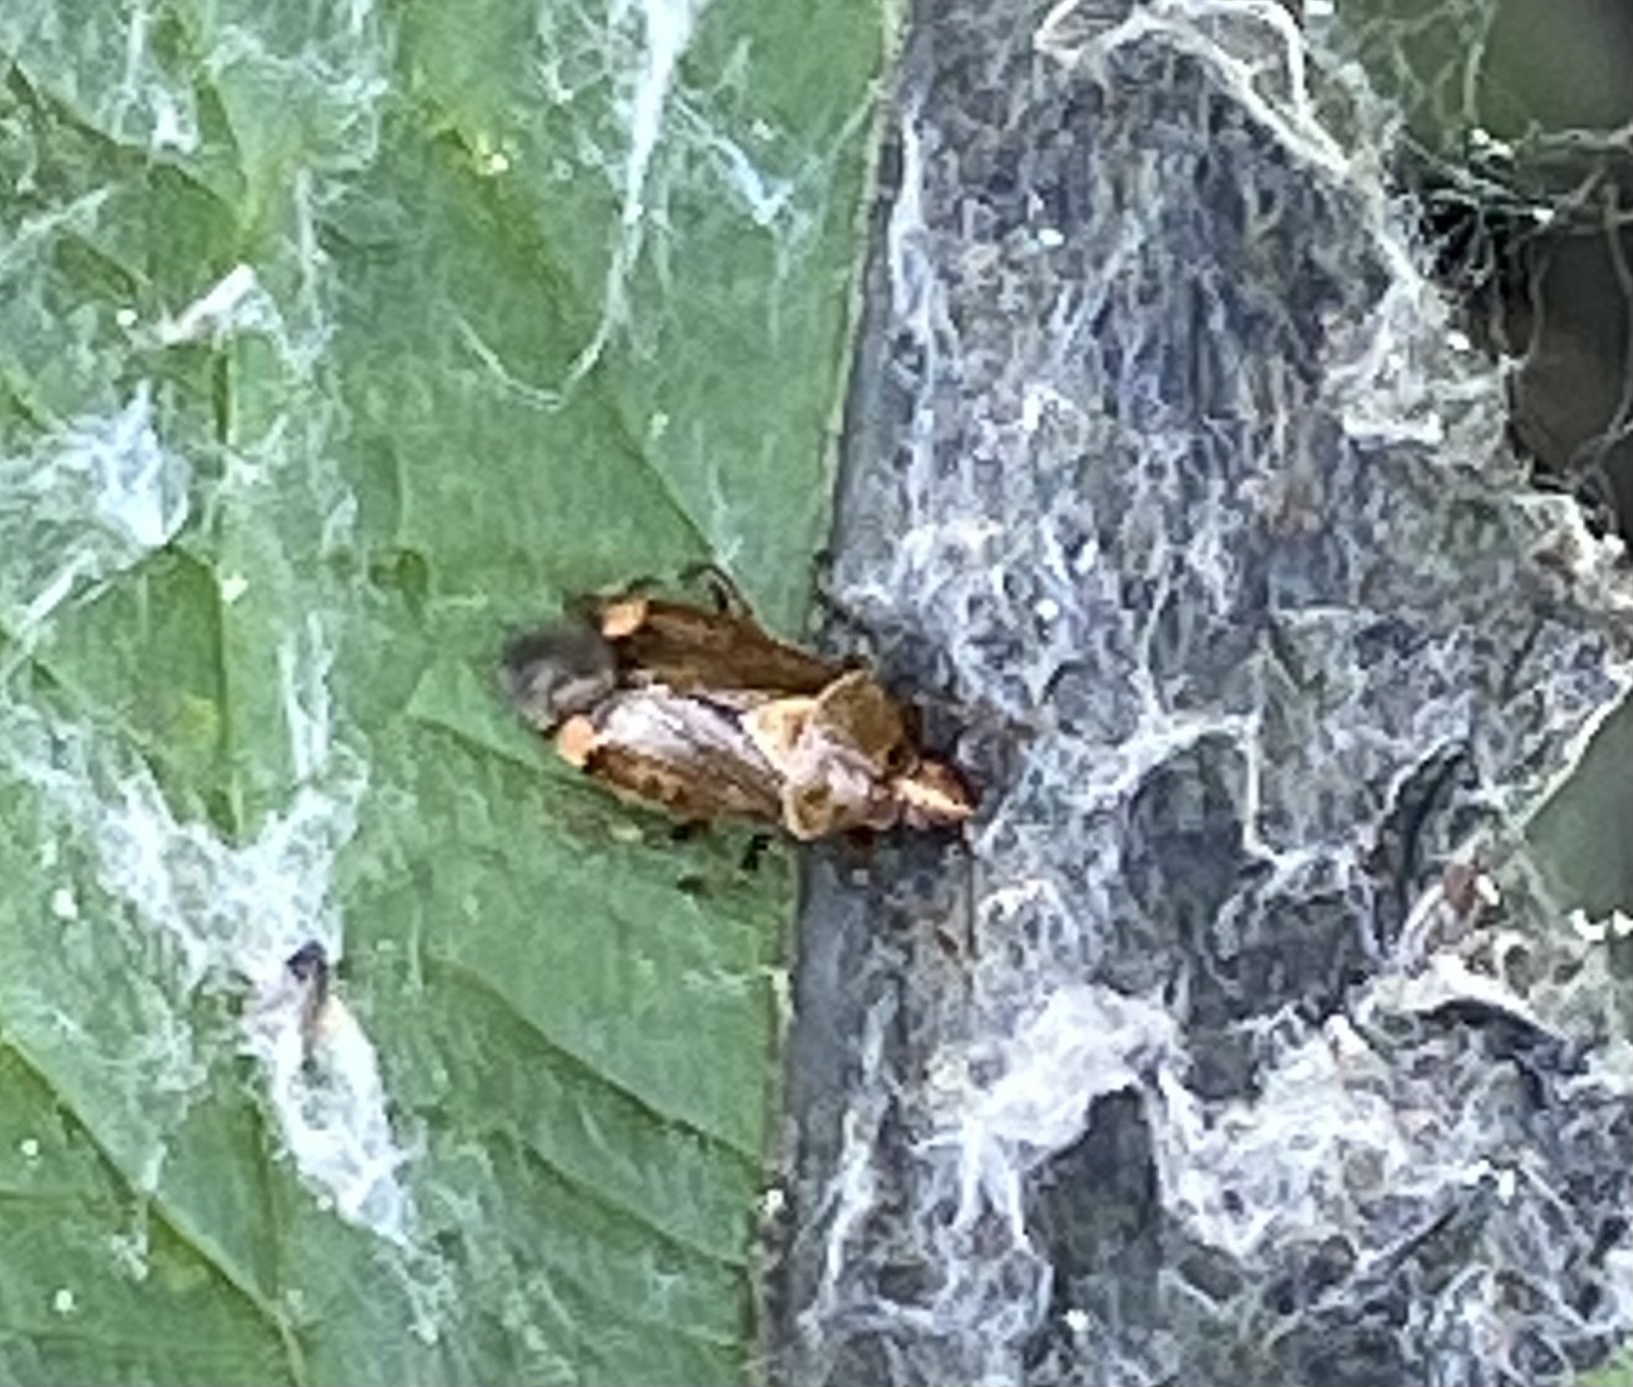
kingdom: Animalia
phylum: Arthropoda
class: Insecta
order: Hemiptera
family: Miridae
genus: Deraeocoris
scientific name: Deraeocoris flavilinea
